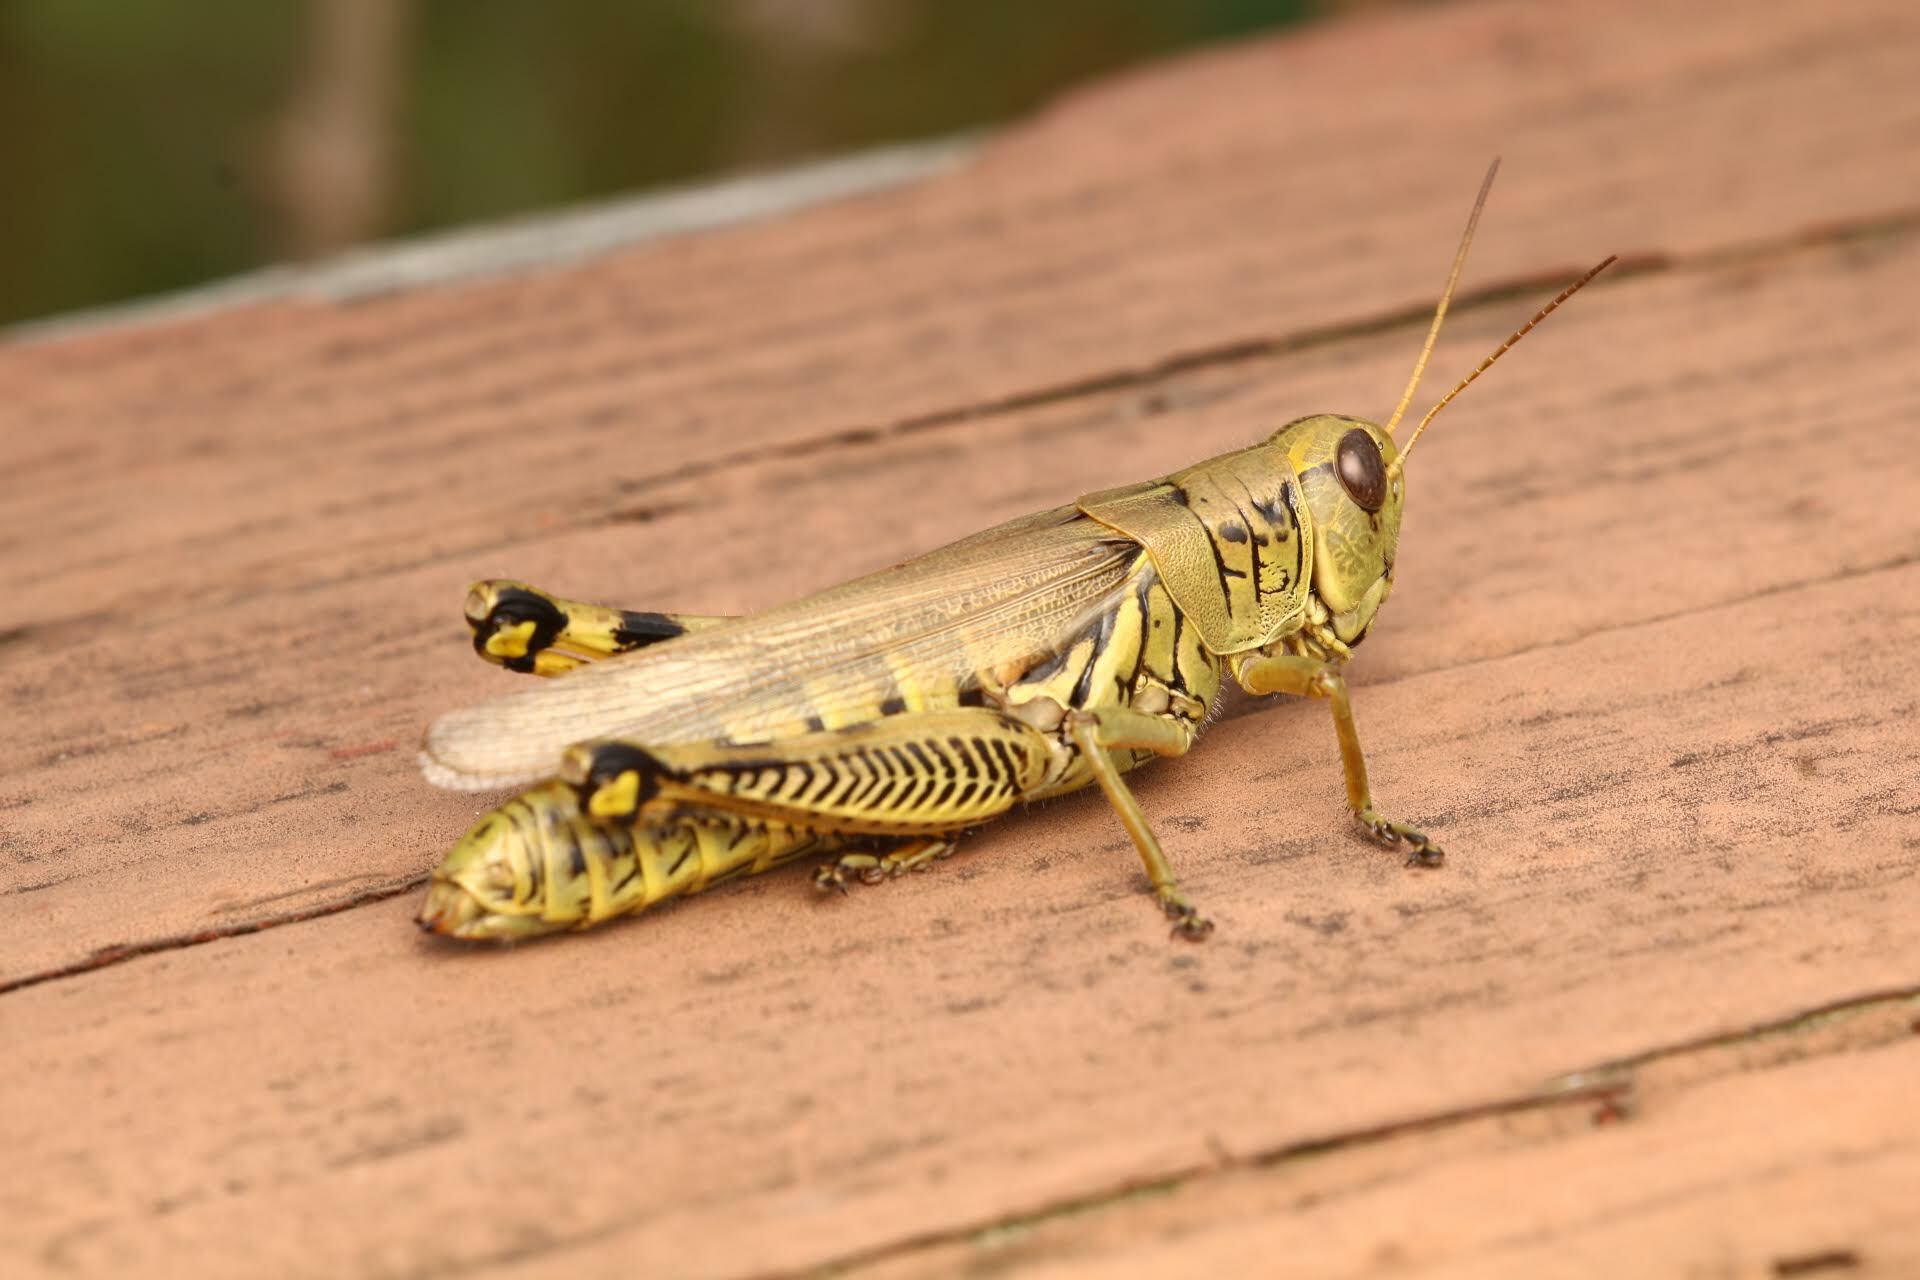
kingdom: Animalia
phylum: Arthropoda
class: Insecta
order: Orthoptera
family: Acrididae
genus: Melanoplus
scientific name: Melanoplus differentialis
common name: Differential grasshopper
